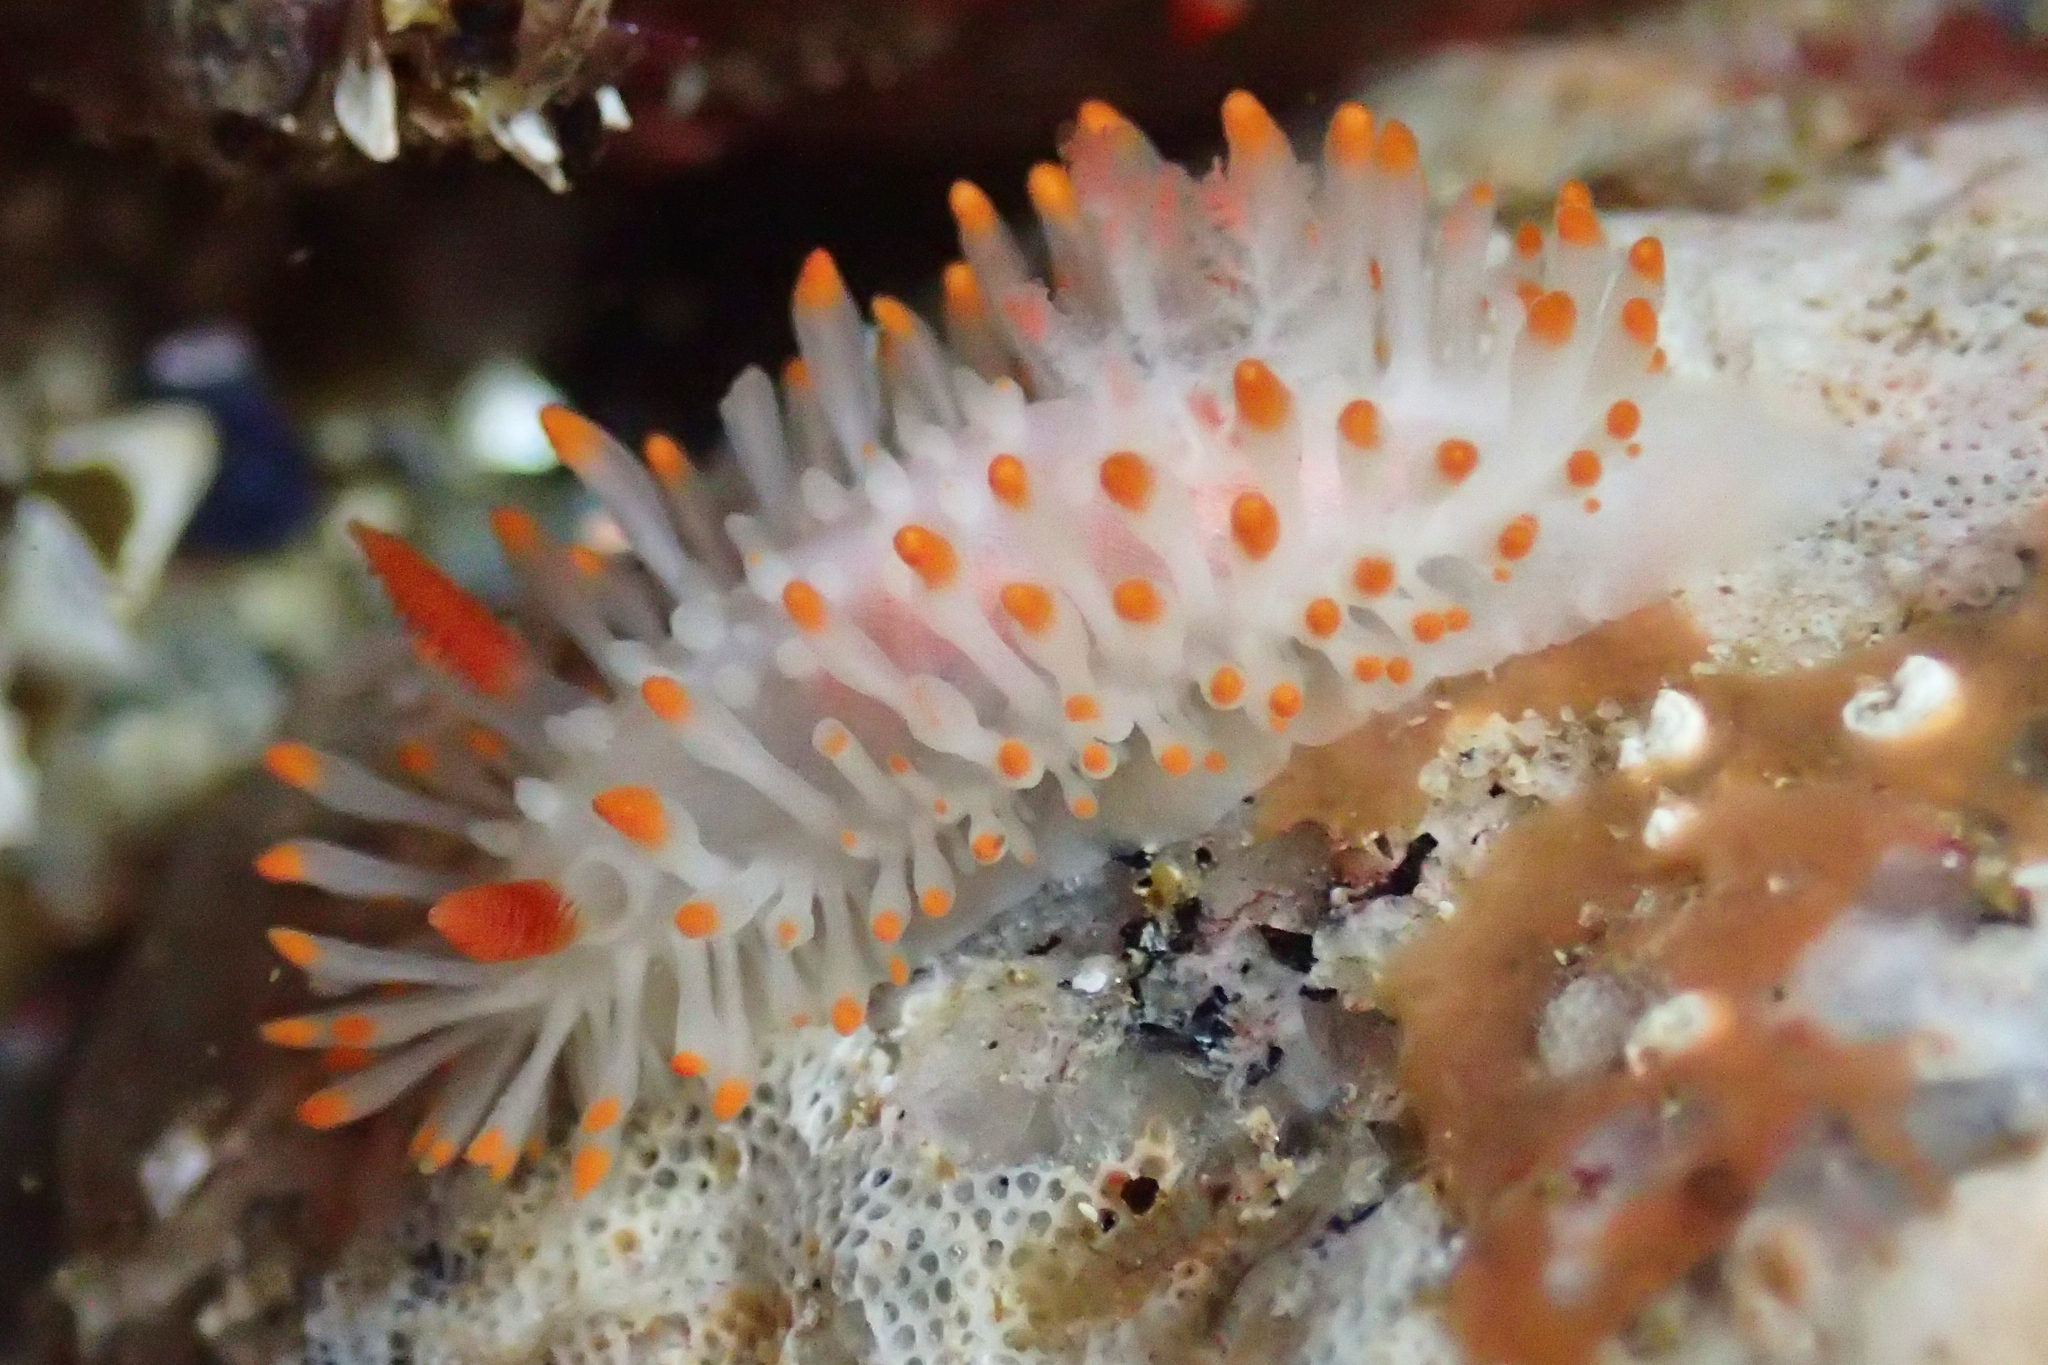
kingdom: Animalia
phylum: Mollusca
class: Gastropoda
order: Nudibranchia
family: Polyceridae
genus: Limacia
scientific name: Limacia cockerelli
